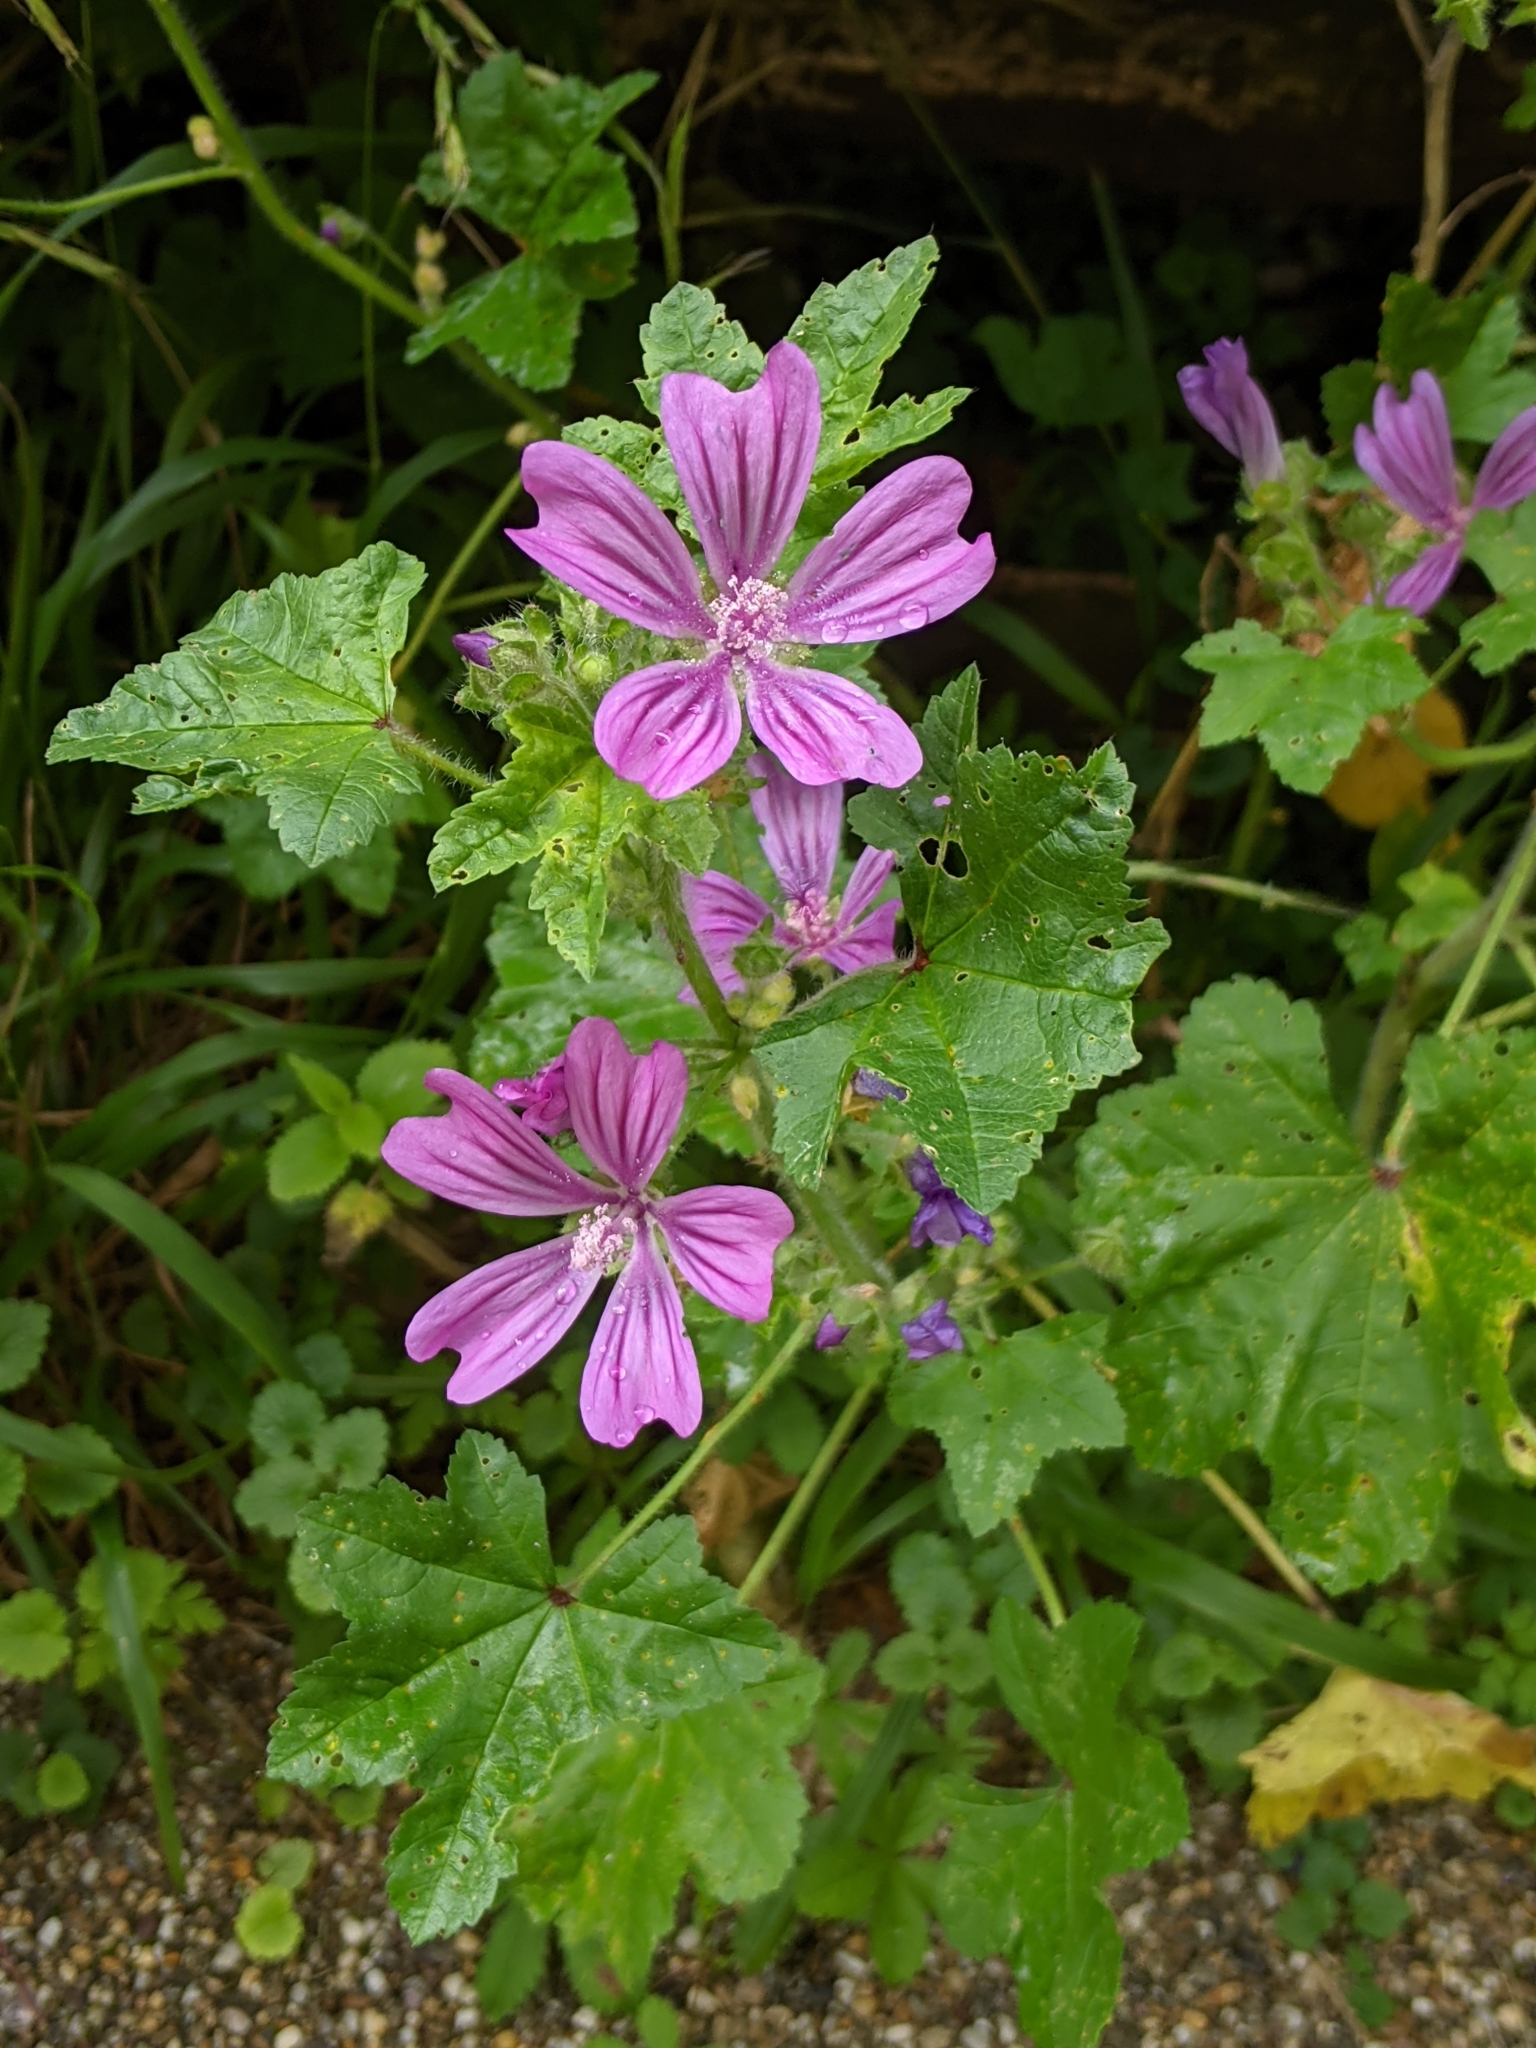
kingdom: Plantae
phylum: Tracheophyta
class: Magnoliopsida
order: Malvales
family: Malvaceae
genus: Malva
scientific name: Malva sylvestris
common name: Common mallow
